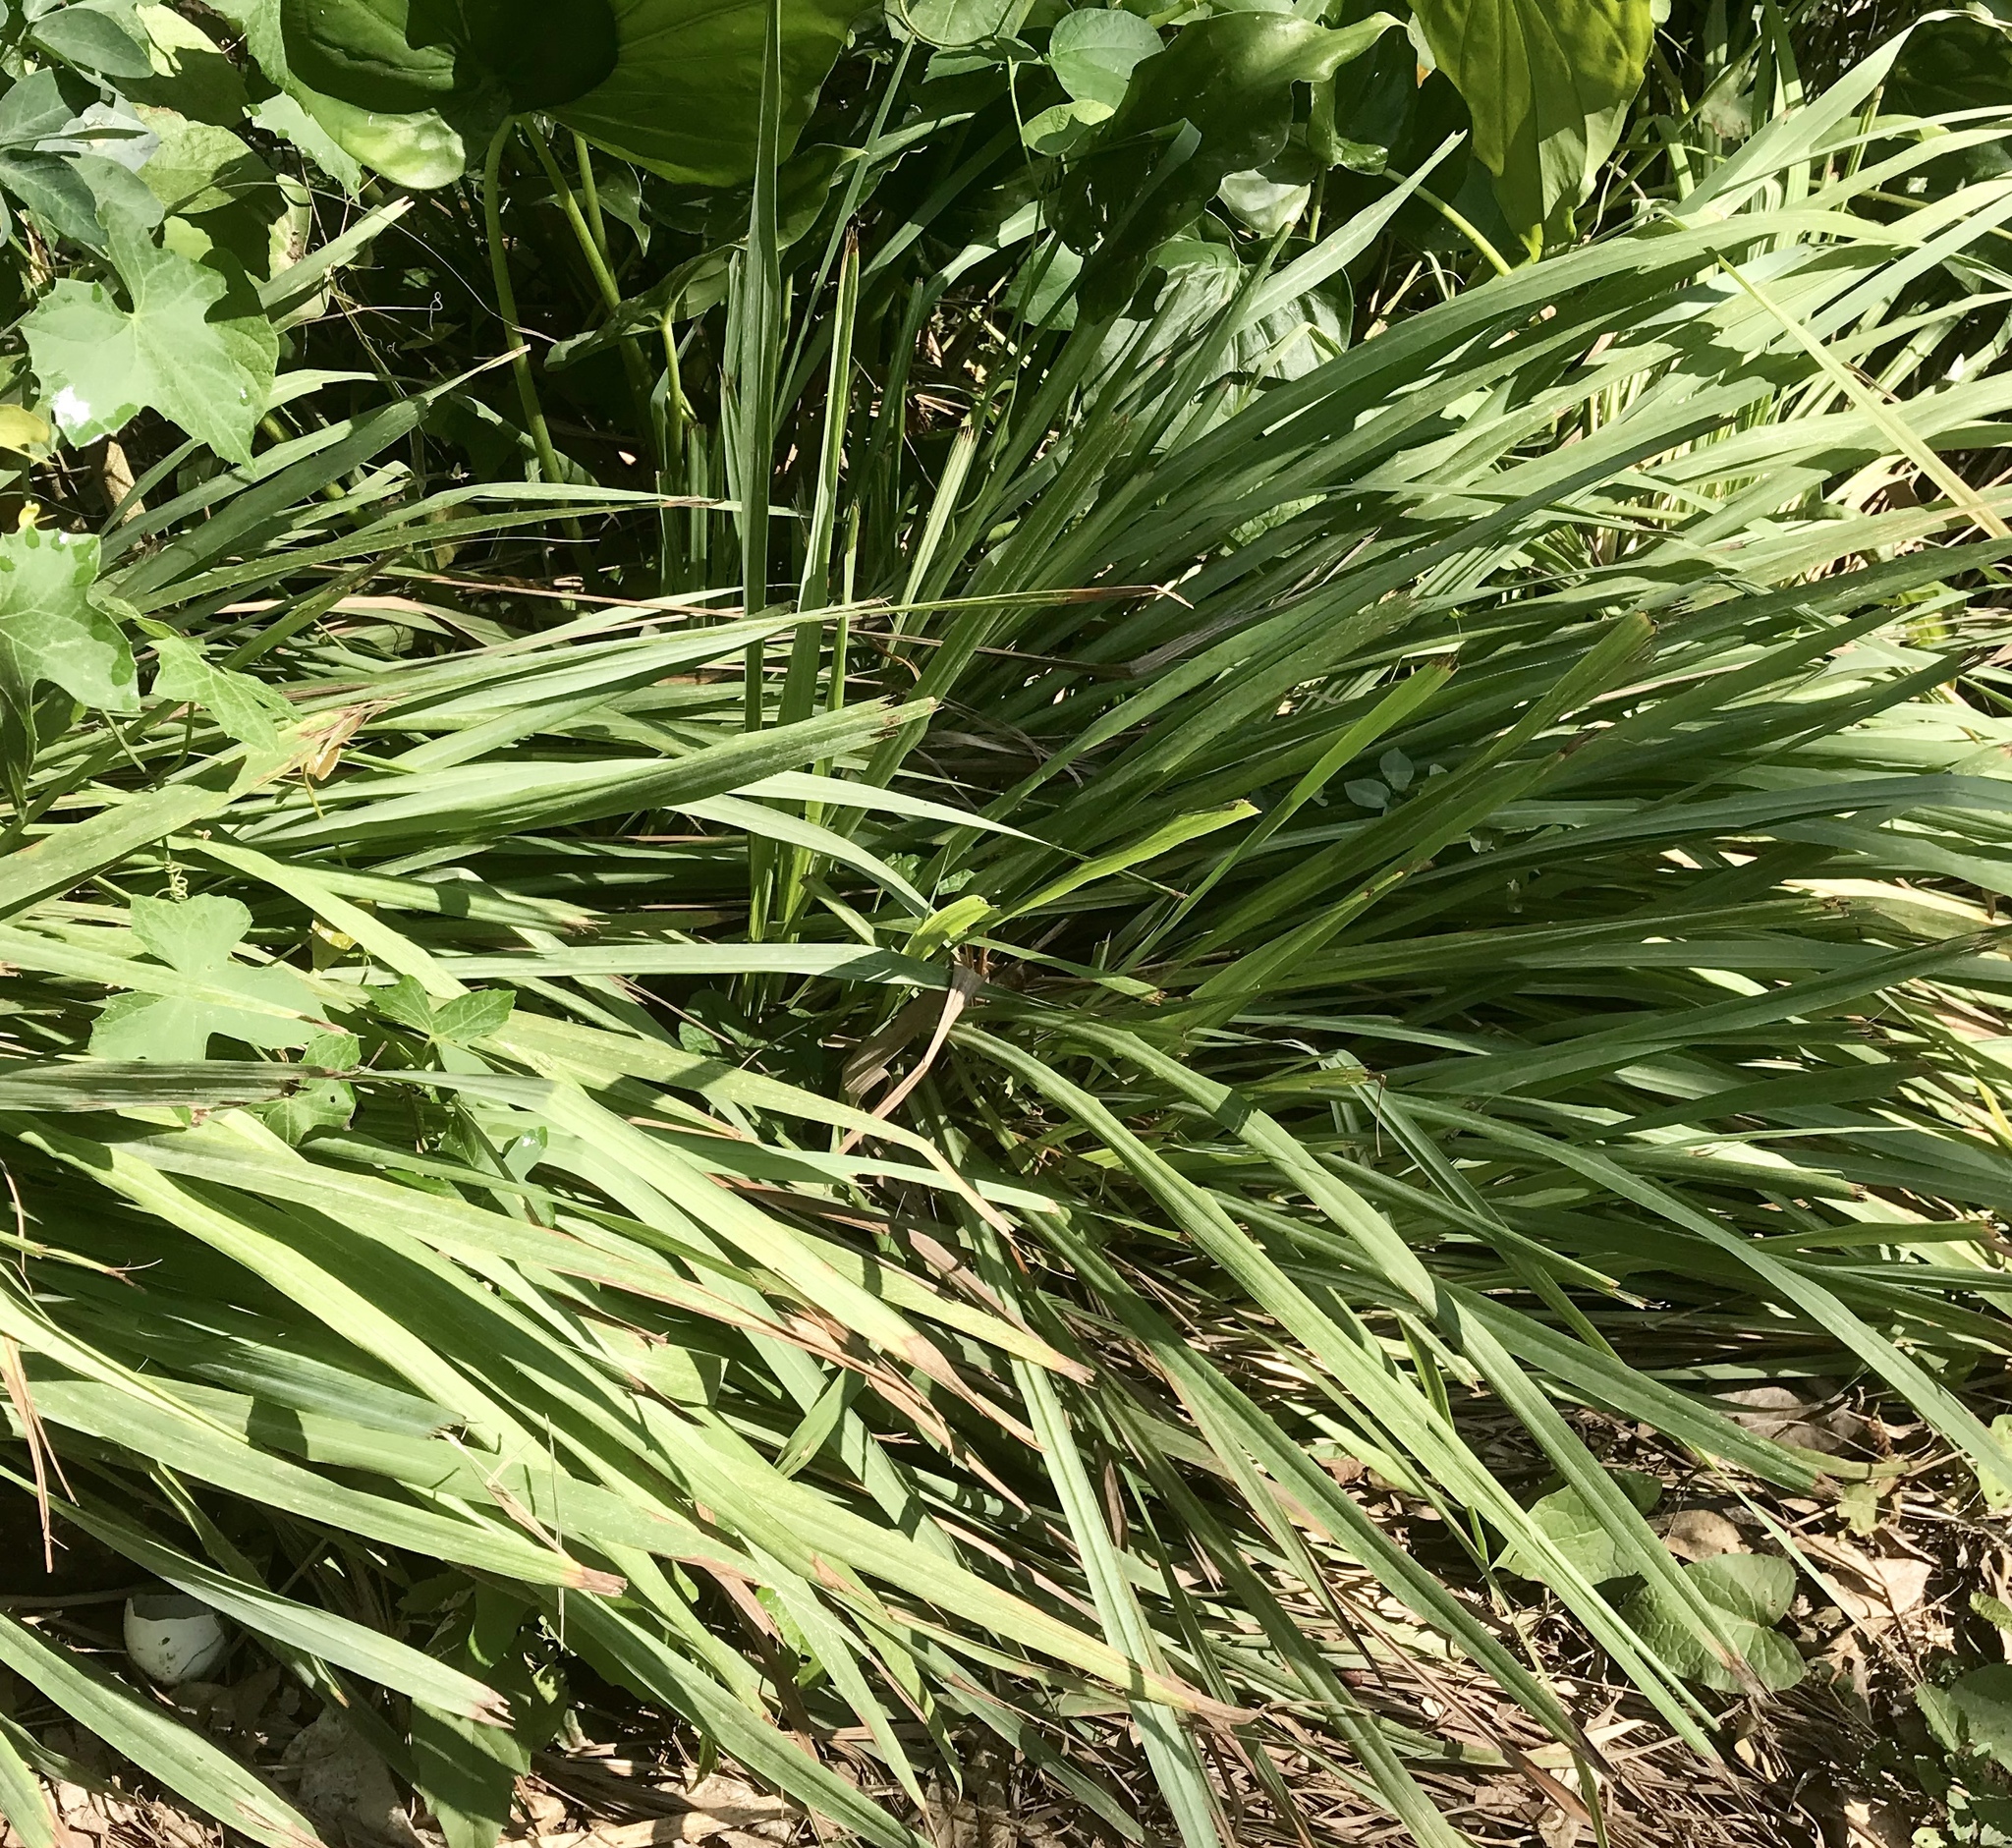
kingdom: Plantae
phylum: Tracheophyta
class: Liliopsida
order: Poales
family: Poaceae
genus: Cymbopogon
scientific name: Cymbopogon citratus
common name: Lemon grass
